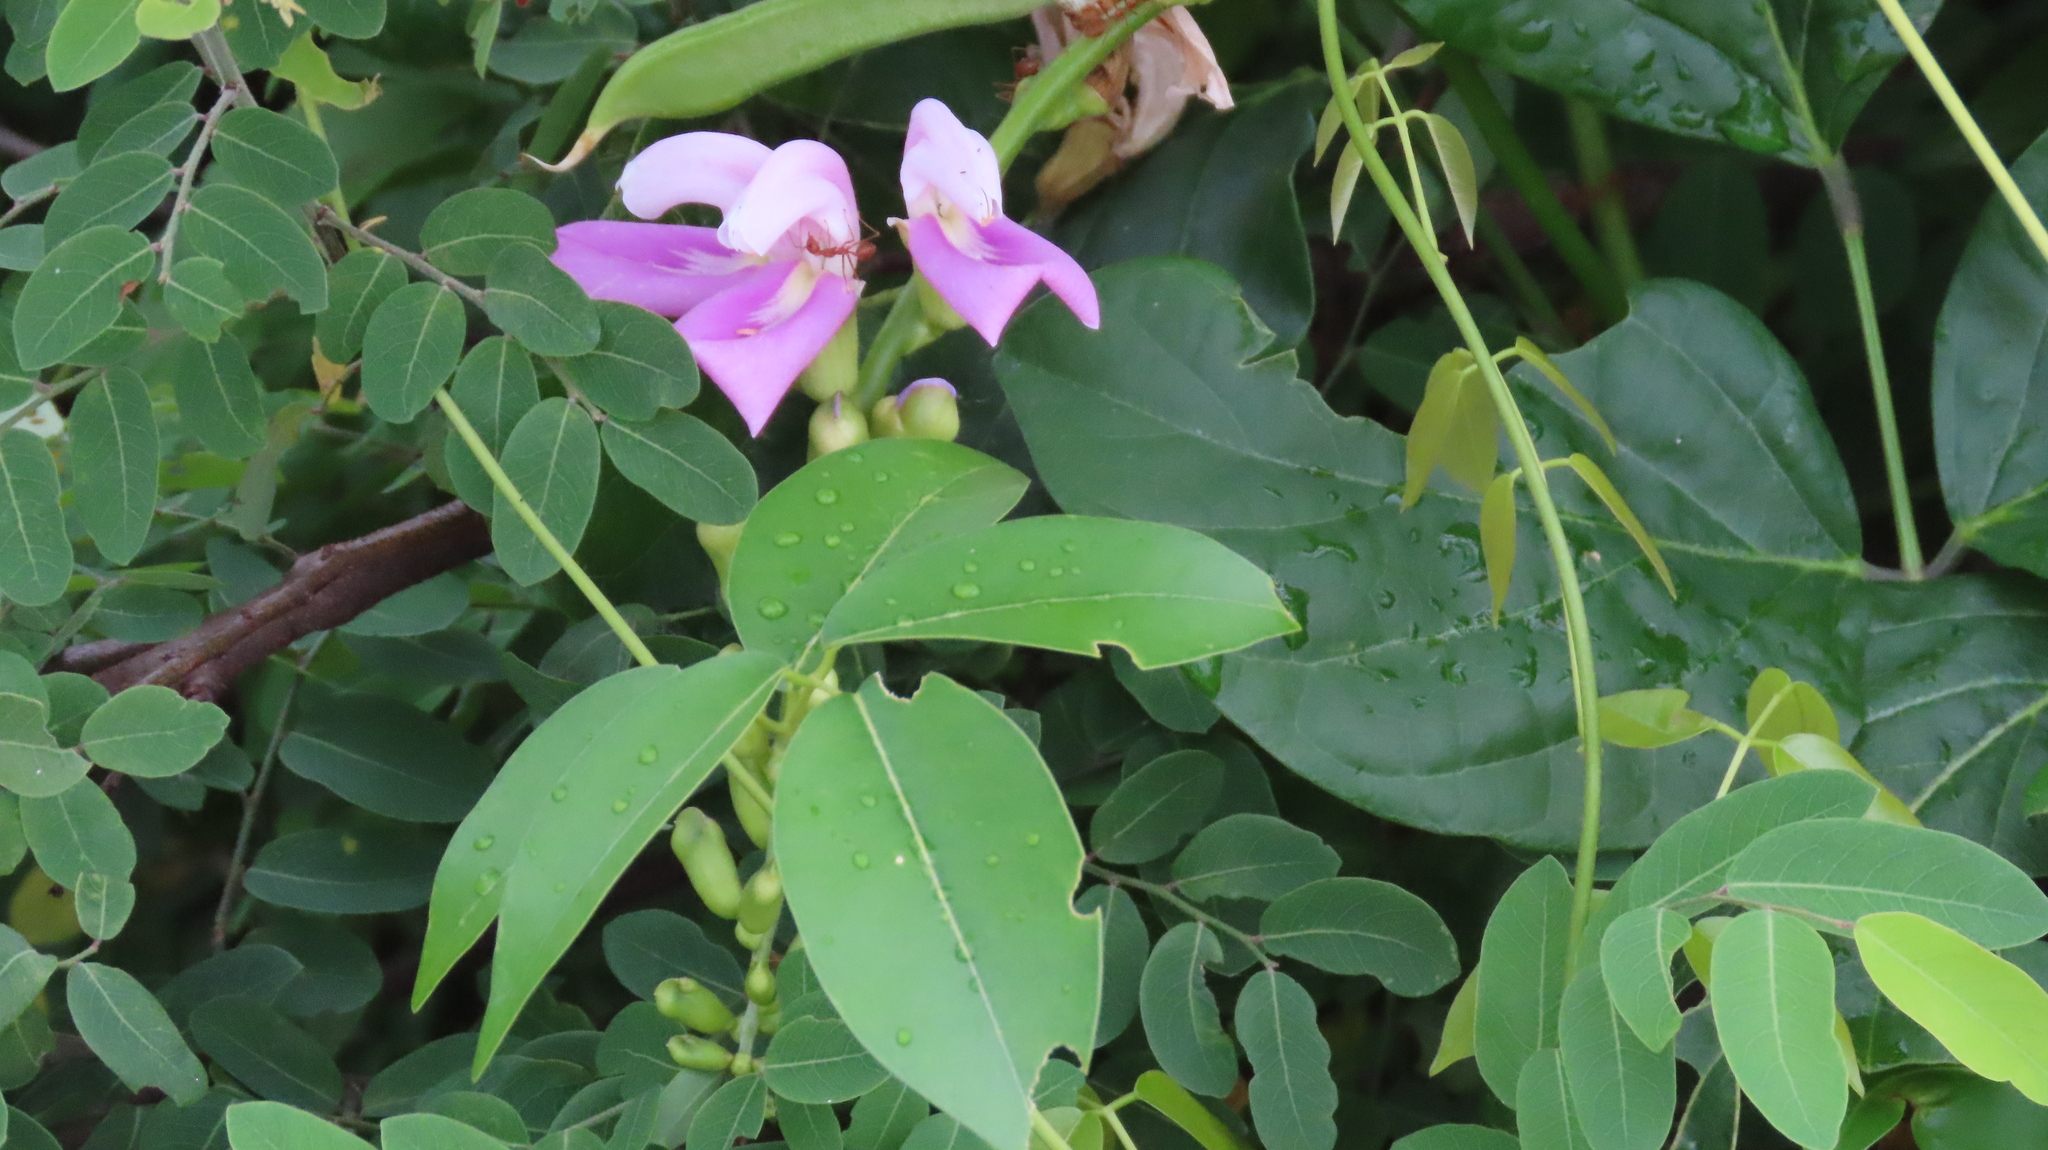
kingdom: Animalia
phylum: Arthropoda
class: Insecta
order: Hymenoptera
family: Formicidae
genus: Oecophylla
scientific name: Oecophylla smaragdina
